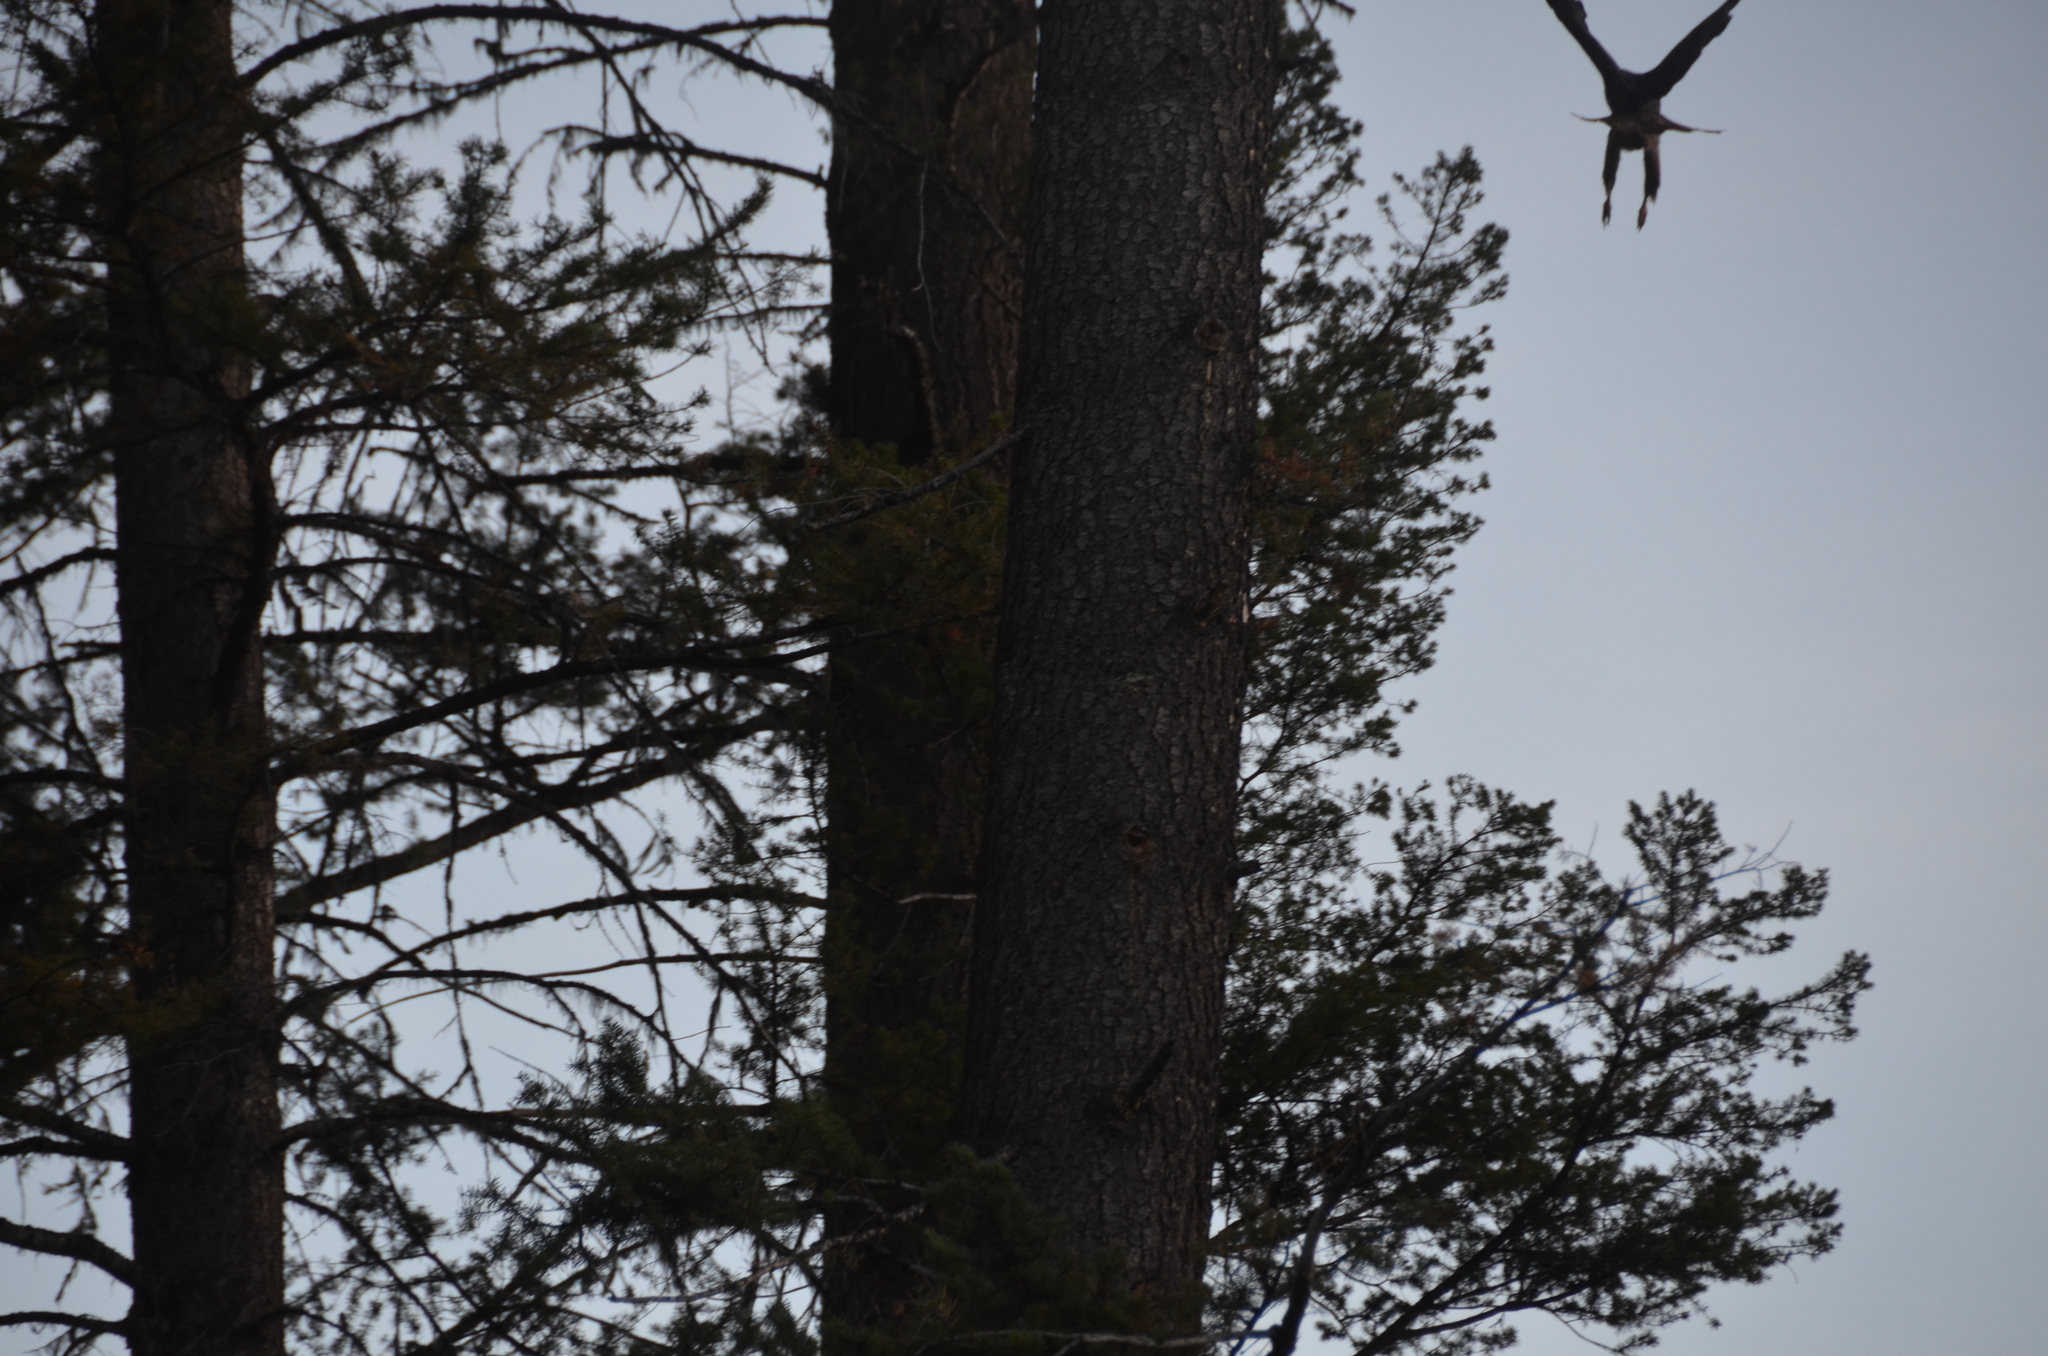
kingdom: Animalia
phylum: Chordata
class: Aves
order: Accipitriformes
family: Accipitridae
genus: Buteo
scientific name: Buteo jamaicensis
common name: Red-tailed hawk
